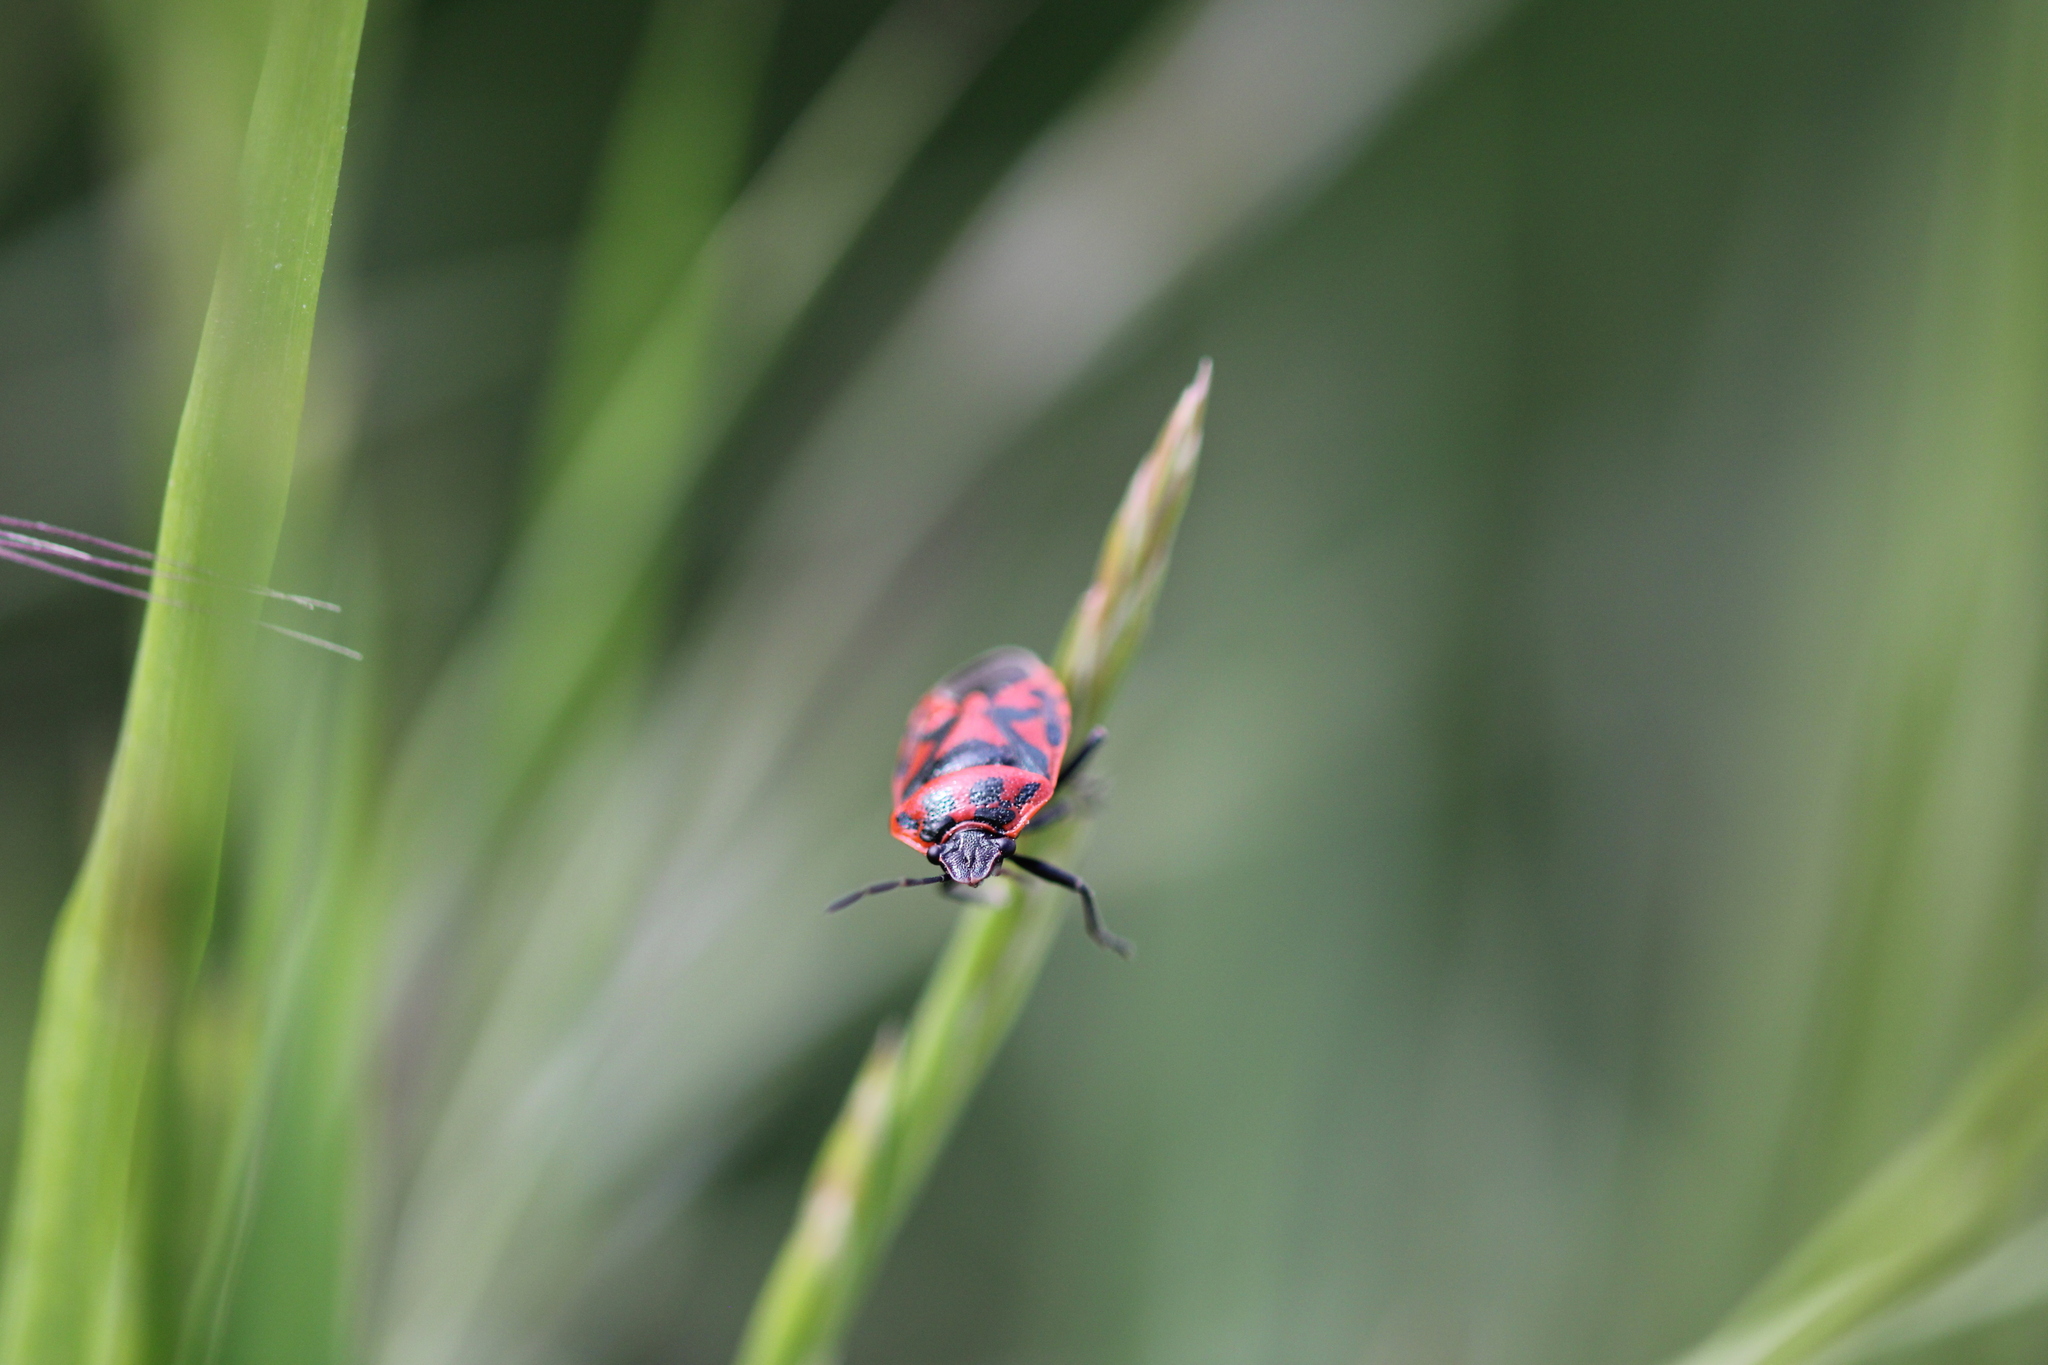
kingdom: Animalia
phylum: Arthropoda
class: Insecta
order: Hemiptera
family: Pentatomidae
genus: Eurydema
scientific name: Eurydema ornata
